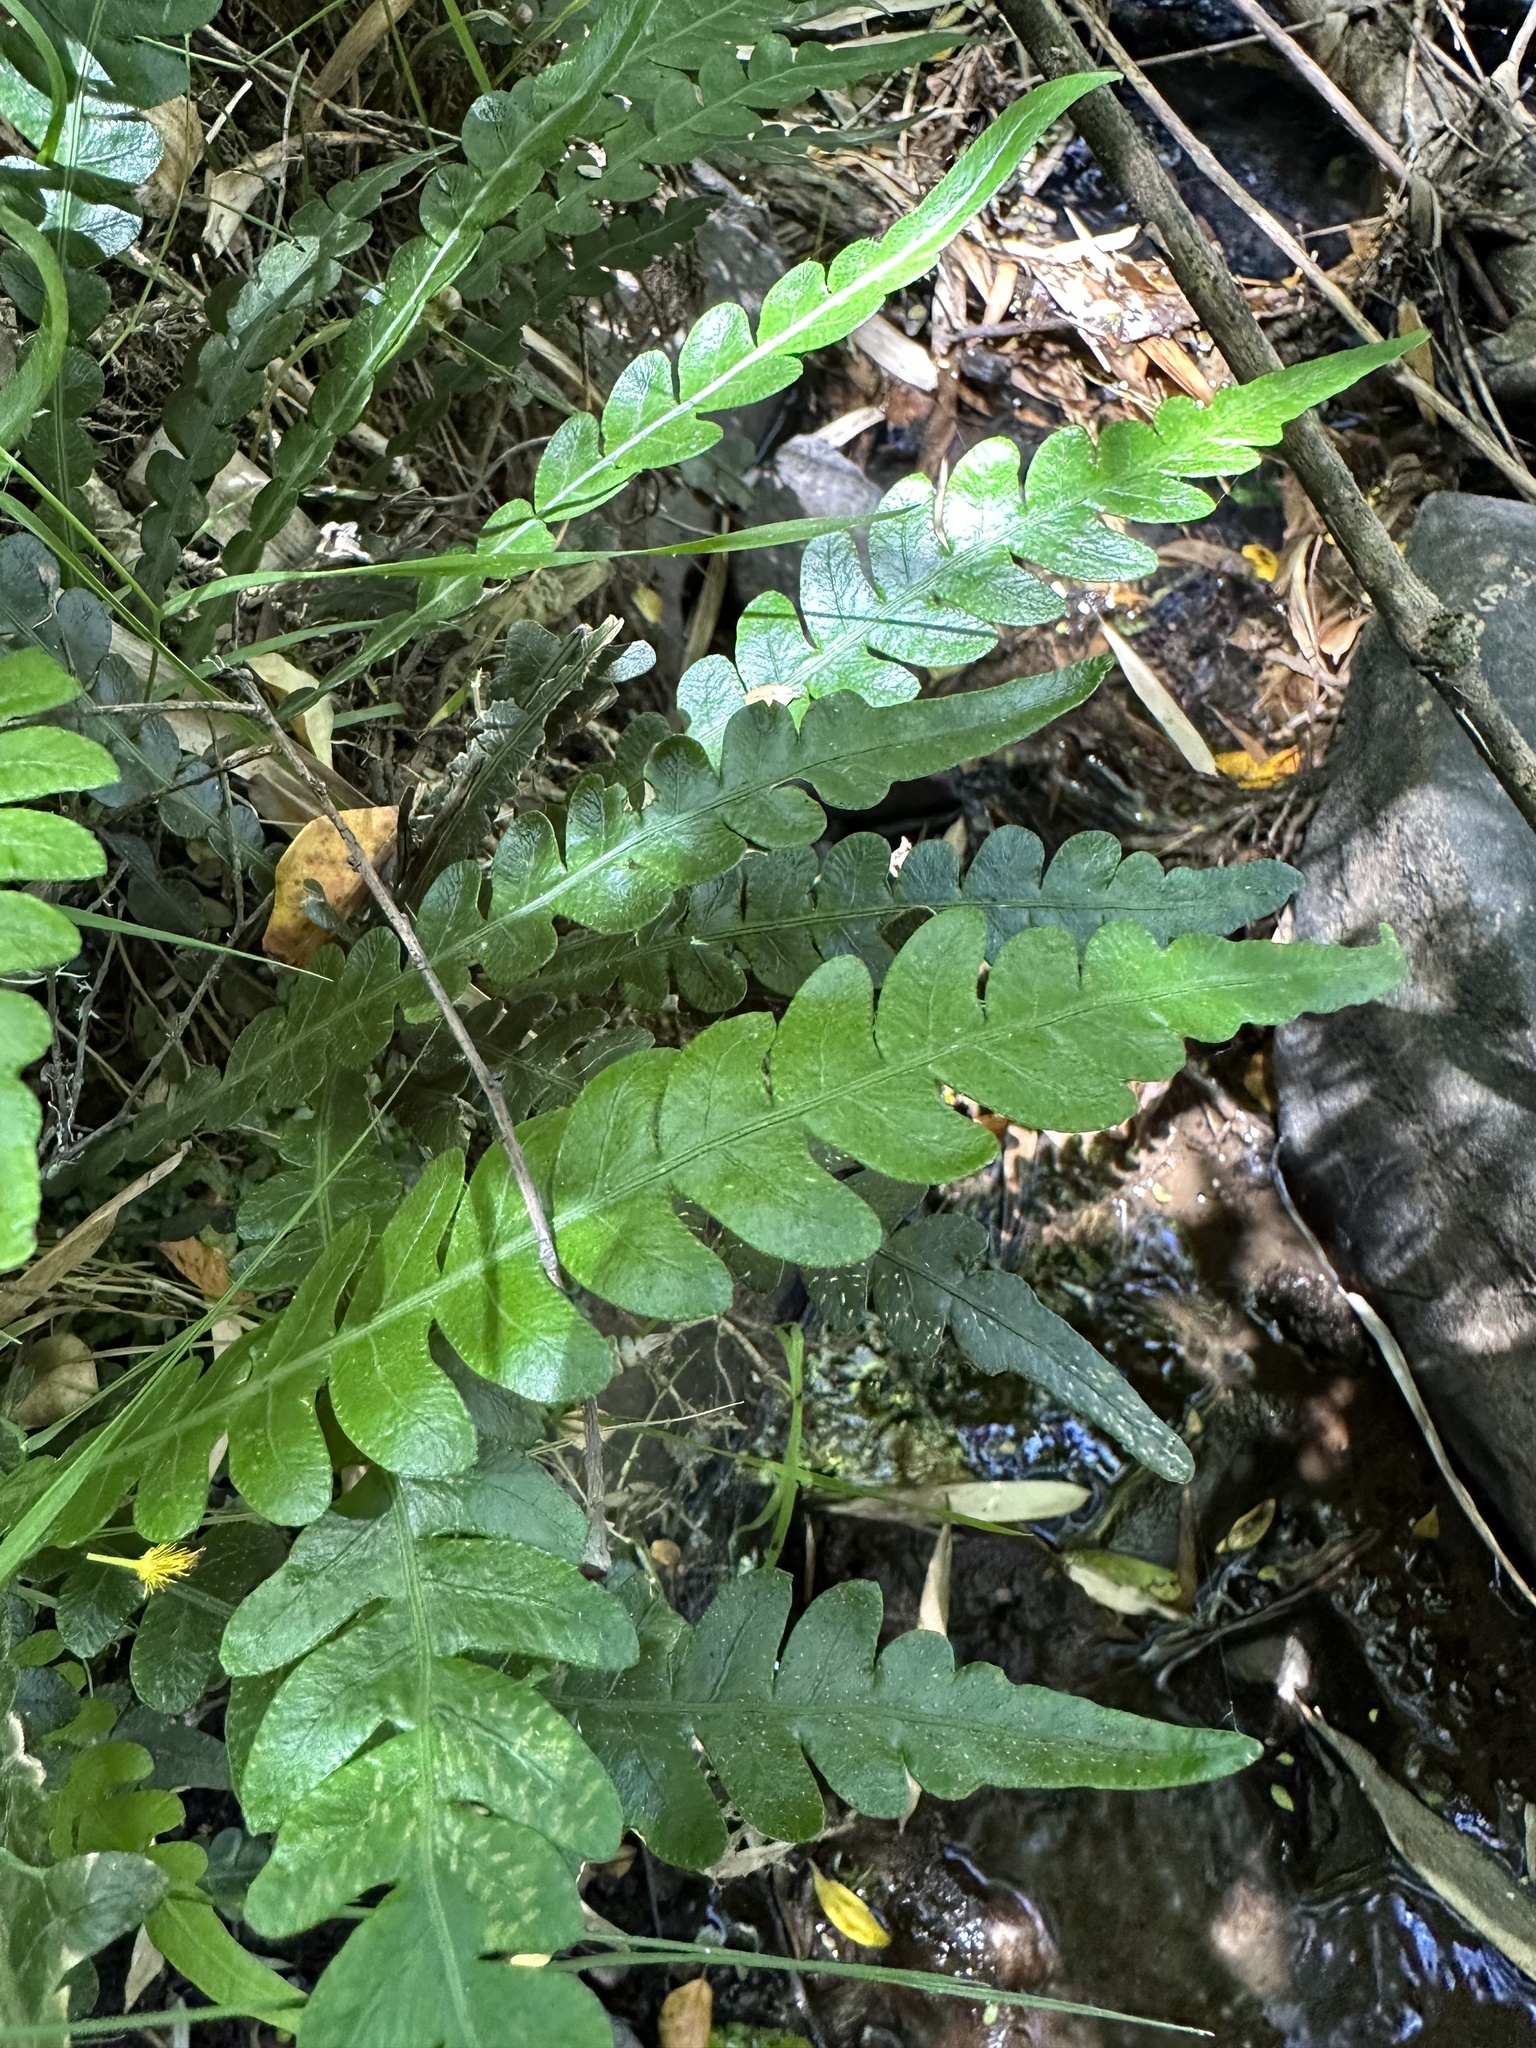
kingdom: Plantae
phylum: Tracheophyta
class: Polypodiopsida
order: Polypodiales
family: Blechnaceae
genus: Austroblechnum
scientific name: Austroblechnum lechleri
